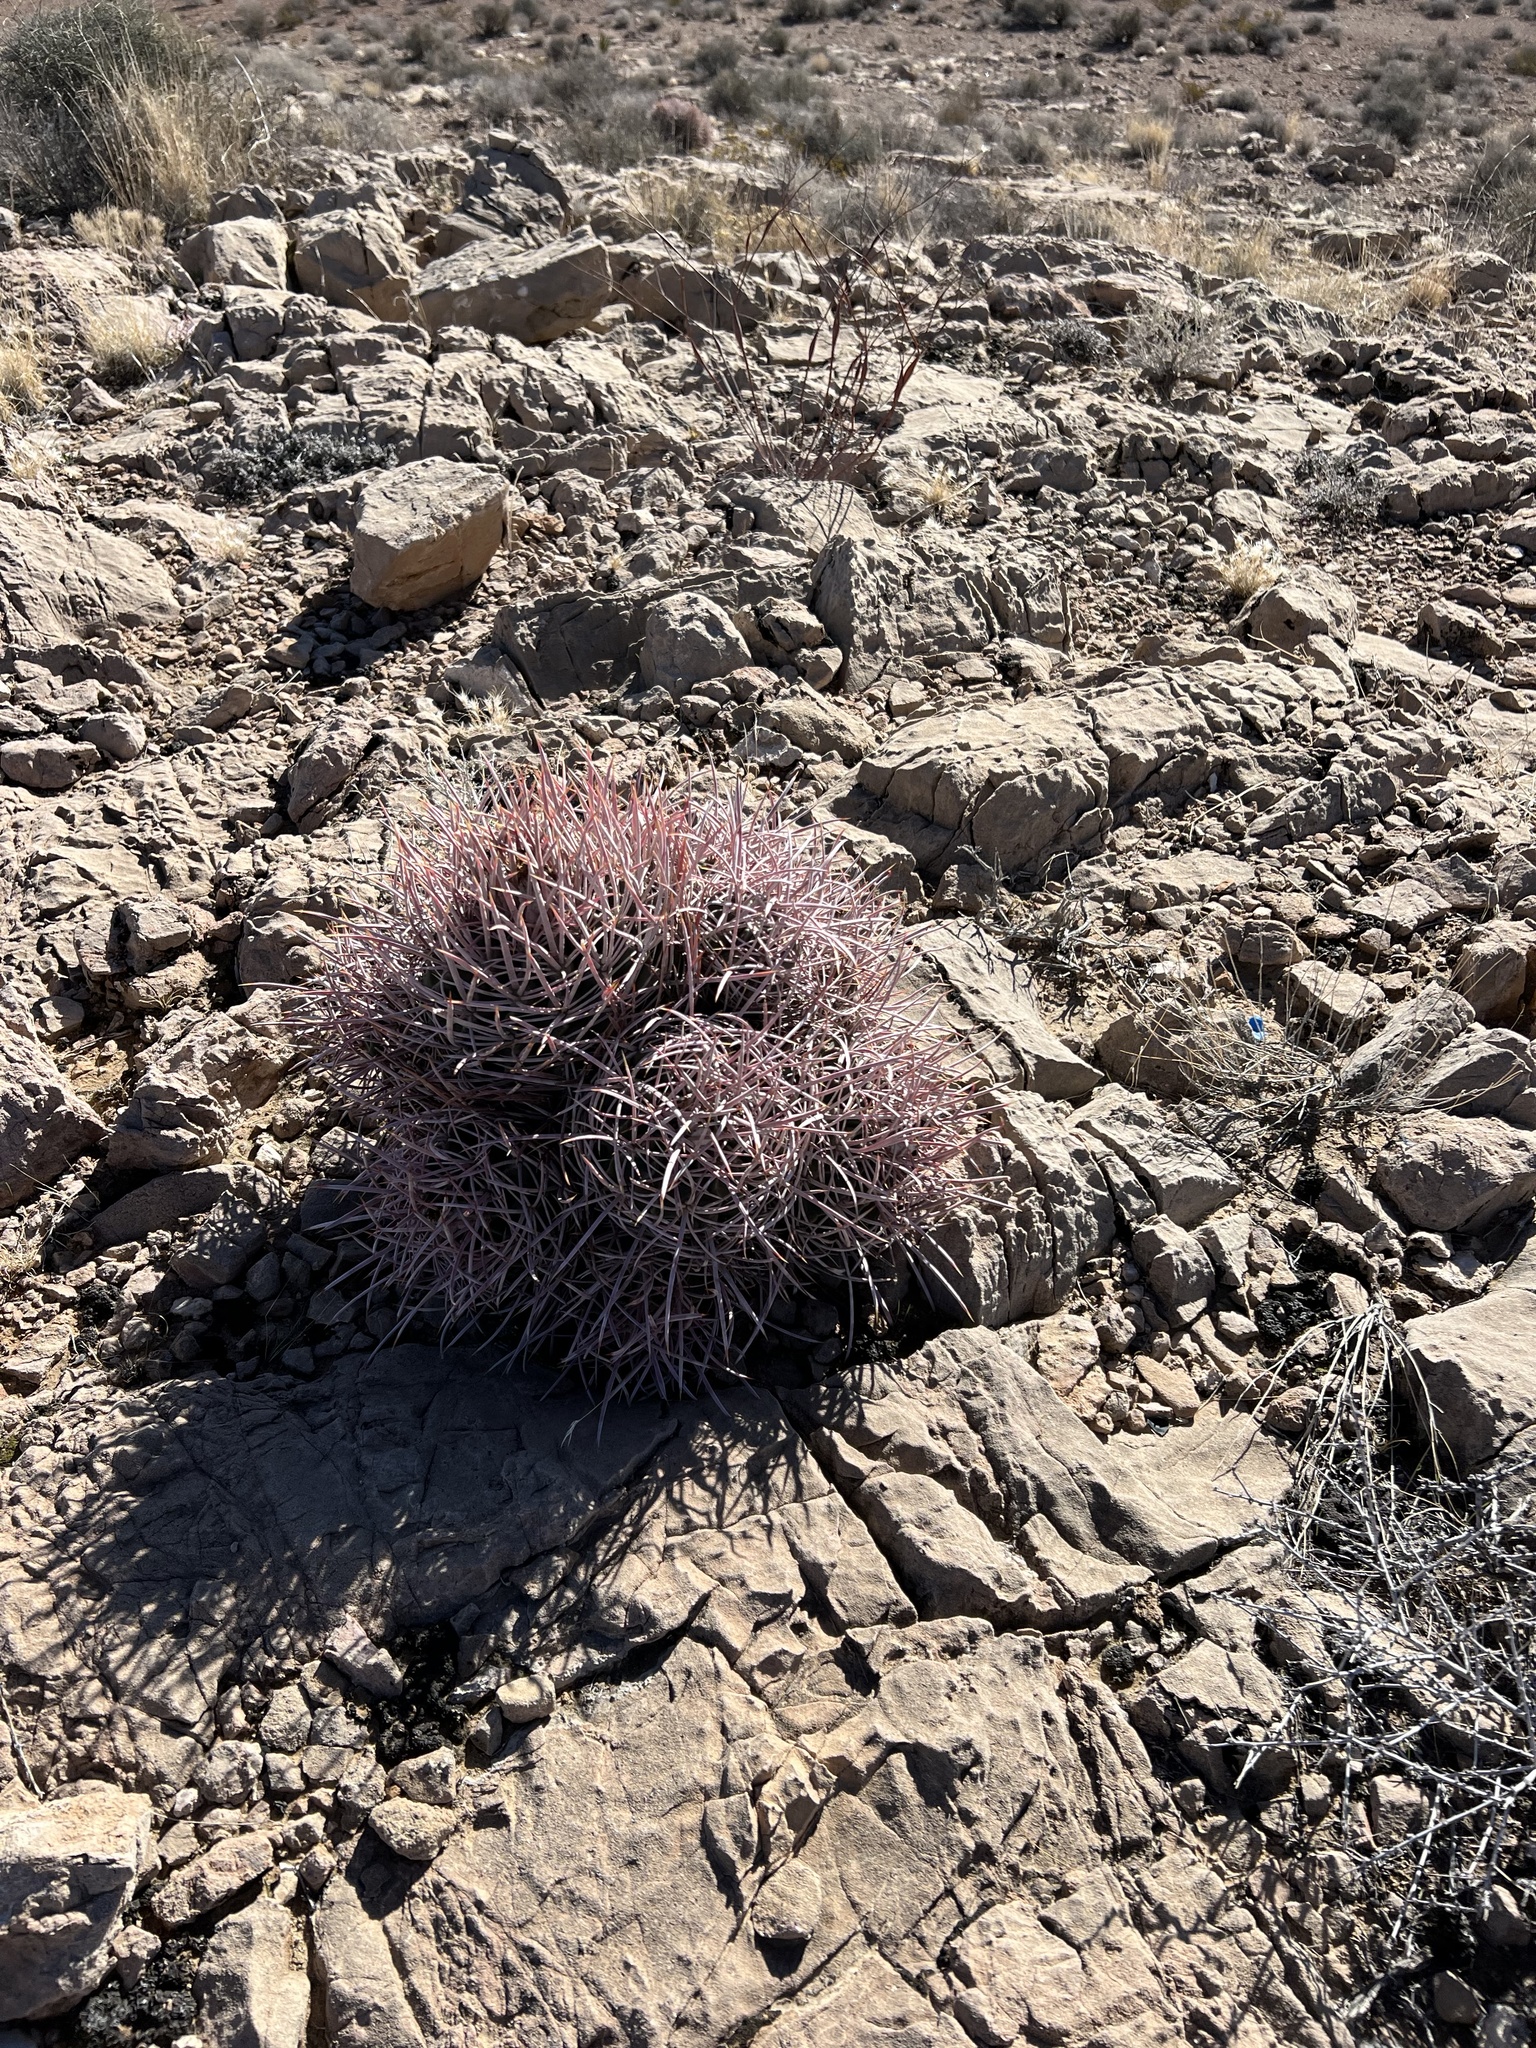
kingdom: Plantae
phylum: Tracheophyta
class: Magnoliopsida
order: Caryophyllales
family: Cactaceae
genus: Echinocactus
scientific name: Echinocactus polycephalus
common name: Cottontop cactus
